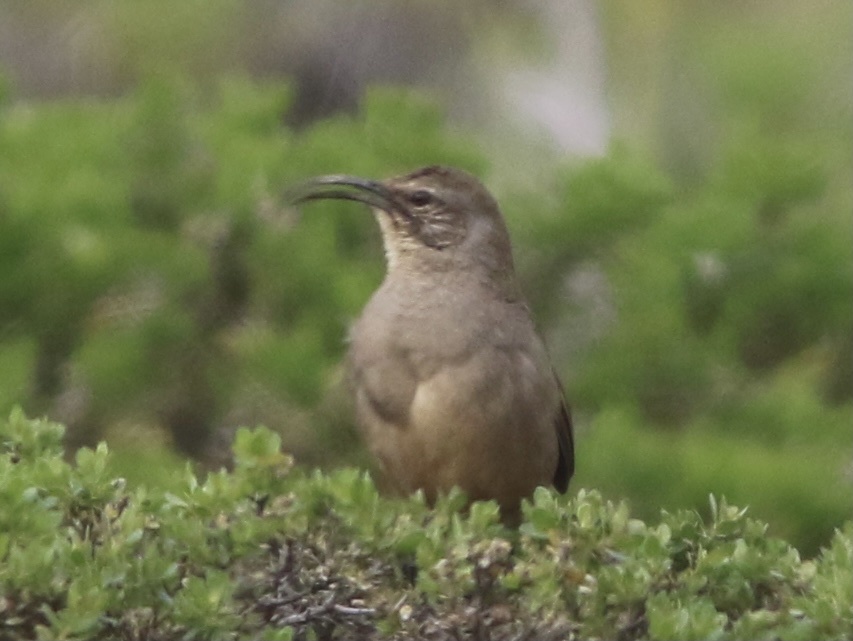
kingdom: Animalia
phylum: Chordata
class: Aves
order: Passeriformes
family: Mimidae
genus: Toxostoma
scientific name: Toxostoma redivivum
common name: California thrasher
